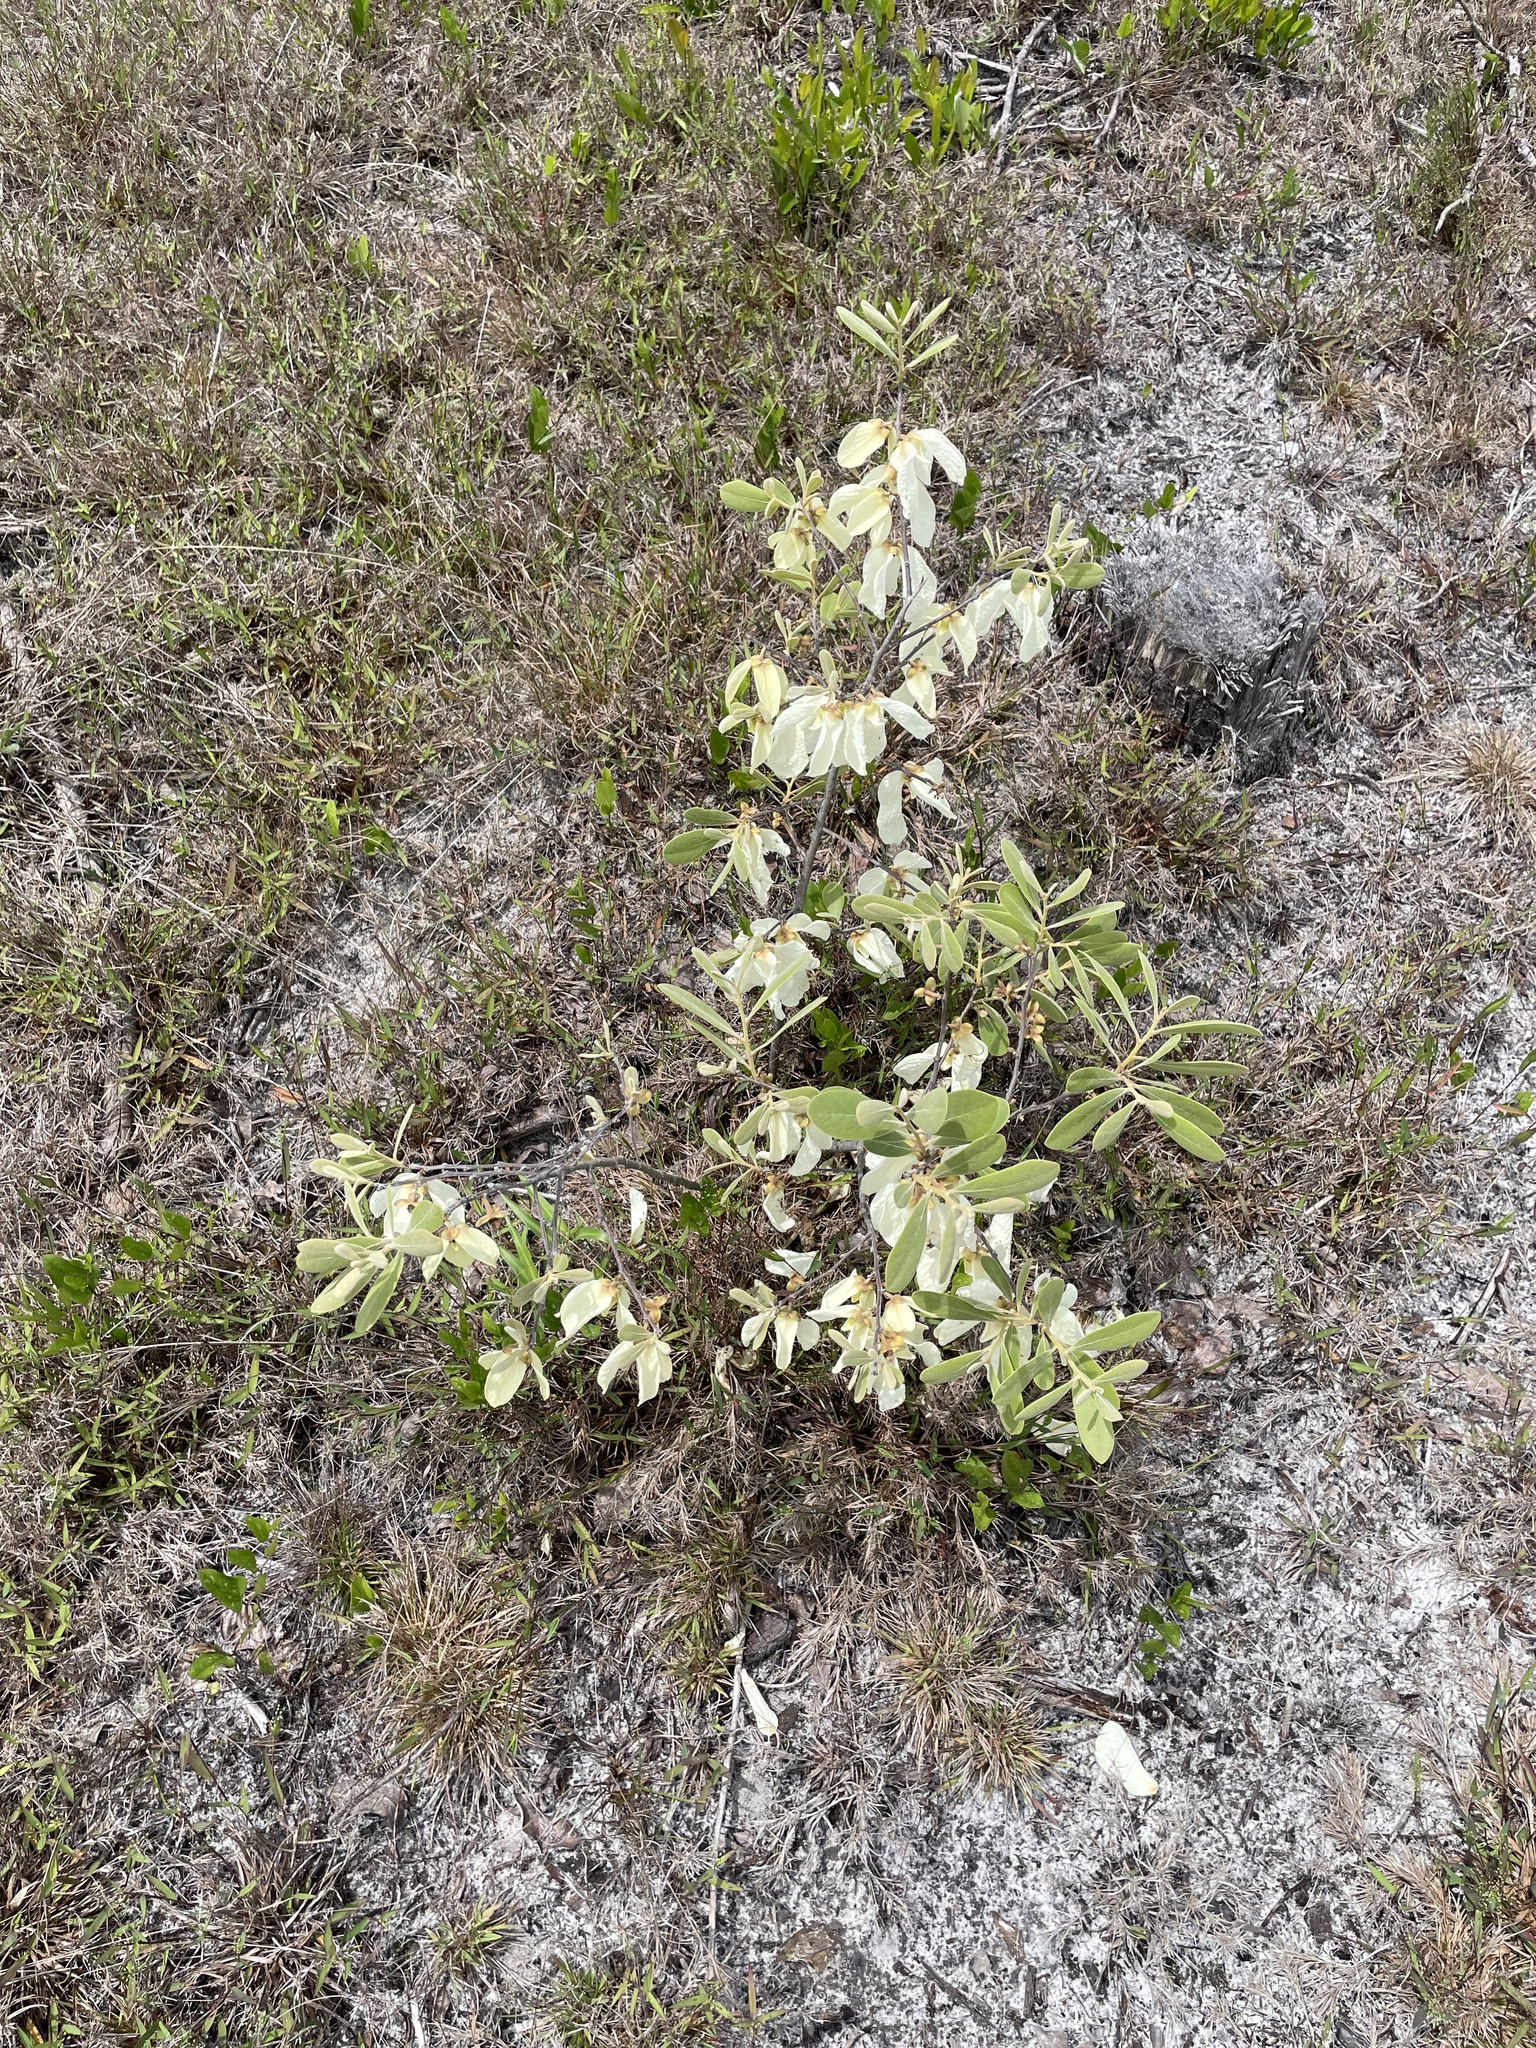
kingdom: Plantae
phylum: Tracheophyta
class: Magnoliopsida
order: Magnoliales
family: Annonaceae
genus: Asimina
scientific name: Asimina speciosa
